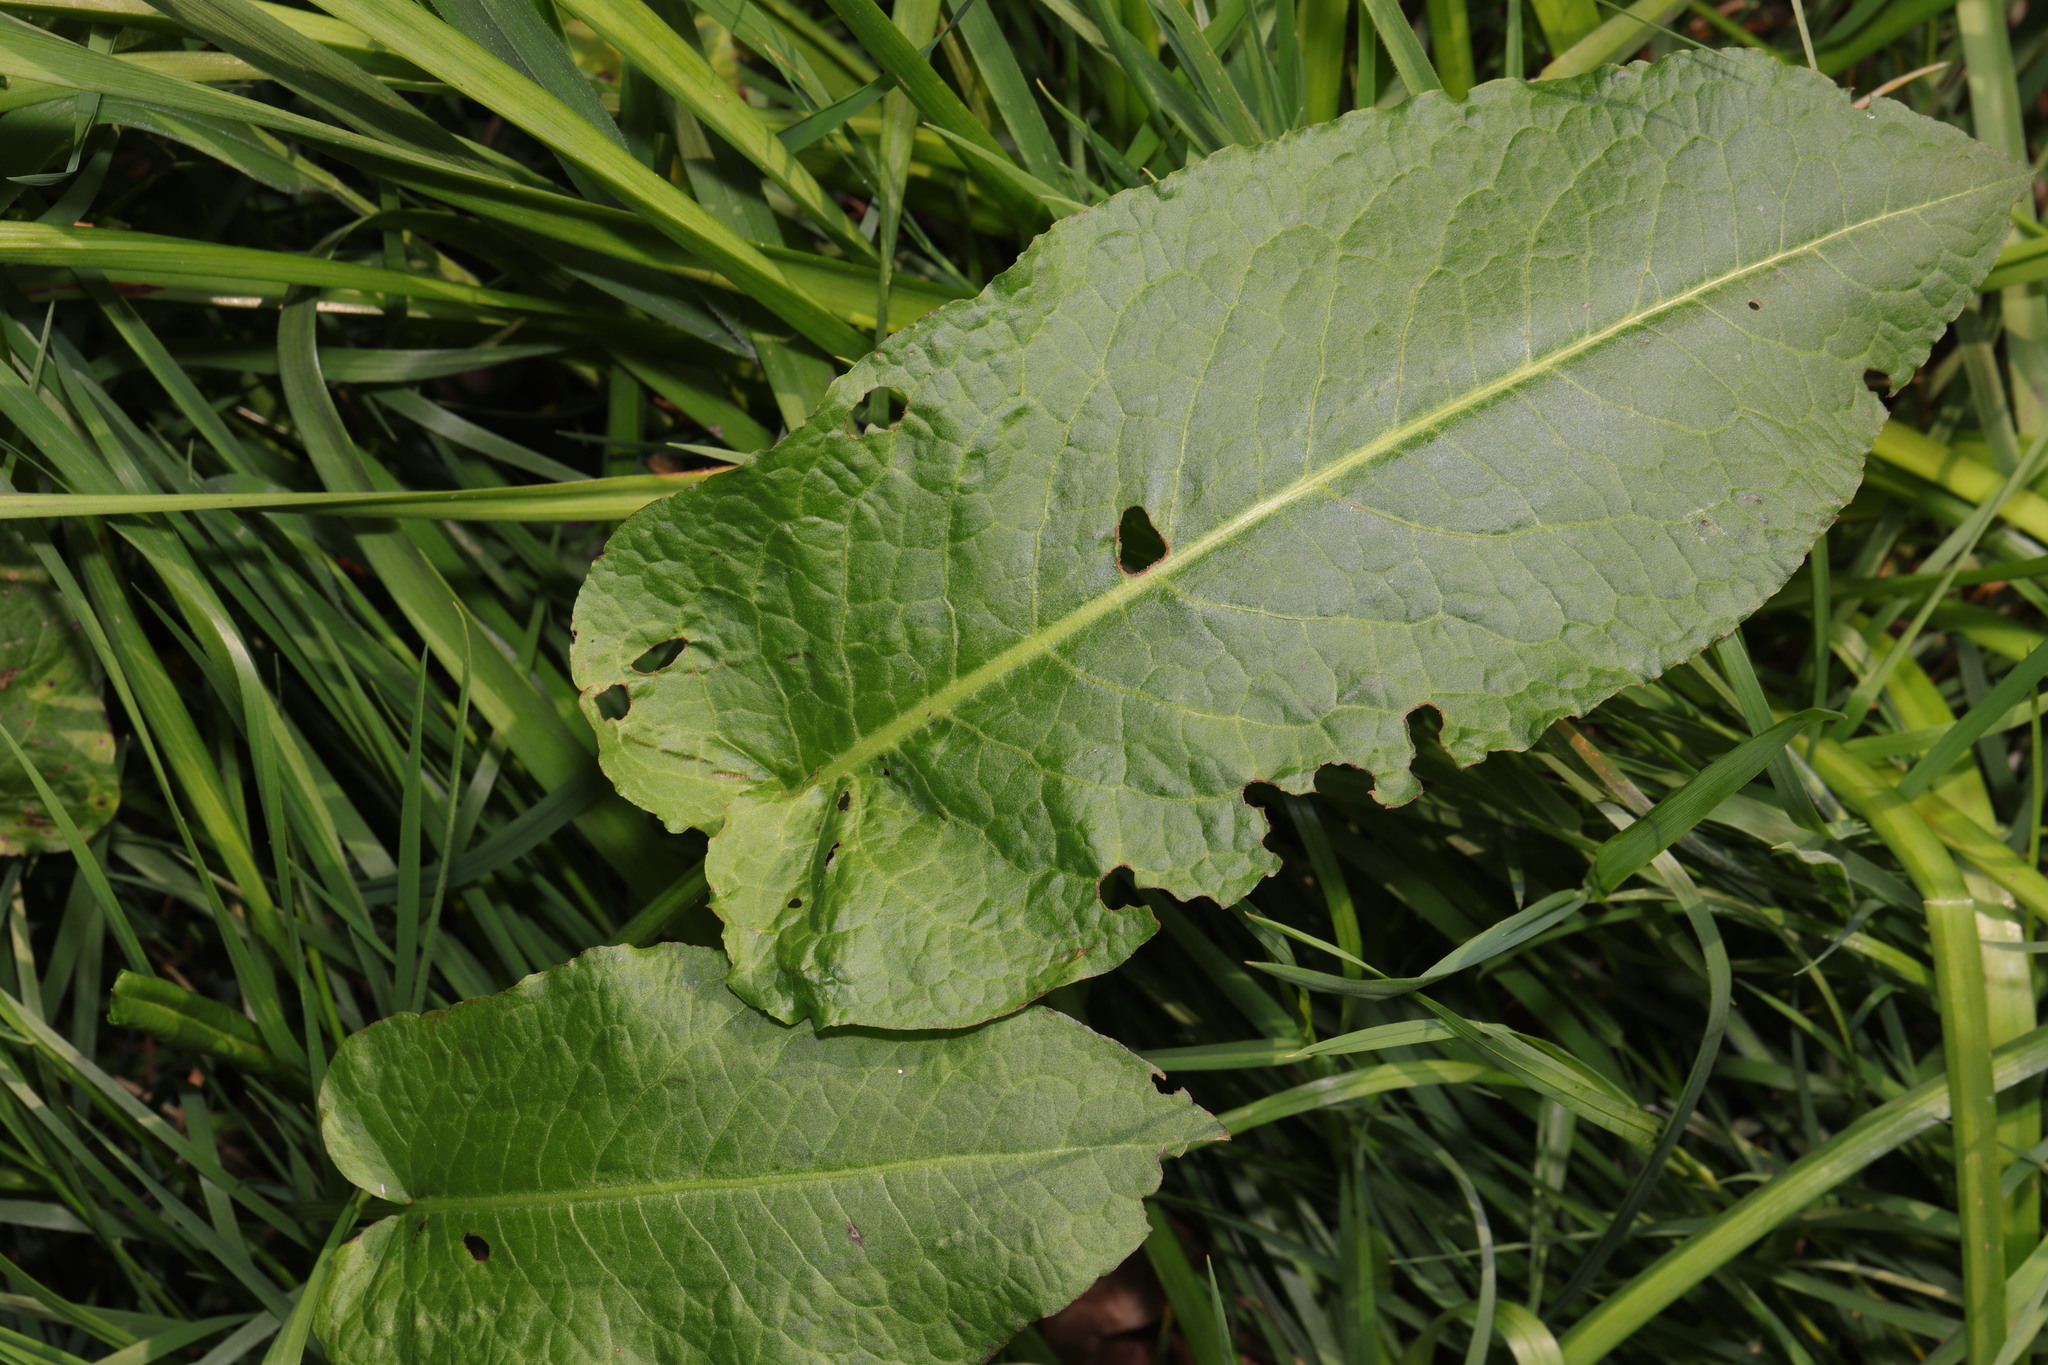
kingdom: Plantae
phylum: Tracheophyta
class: Magnoliopsida
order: Caryophyllales
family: Polygonaceae
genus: Rumex
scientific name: Rumex obtusifolius
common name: Bitter dock
